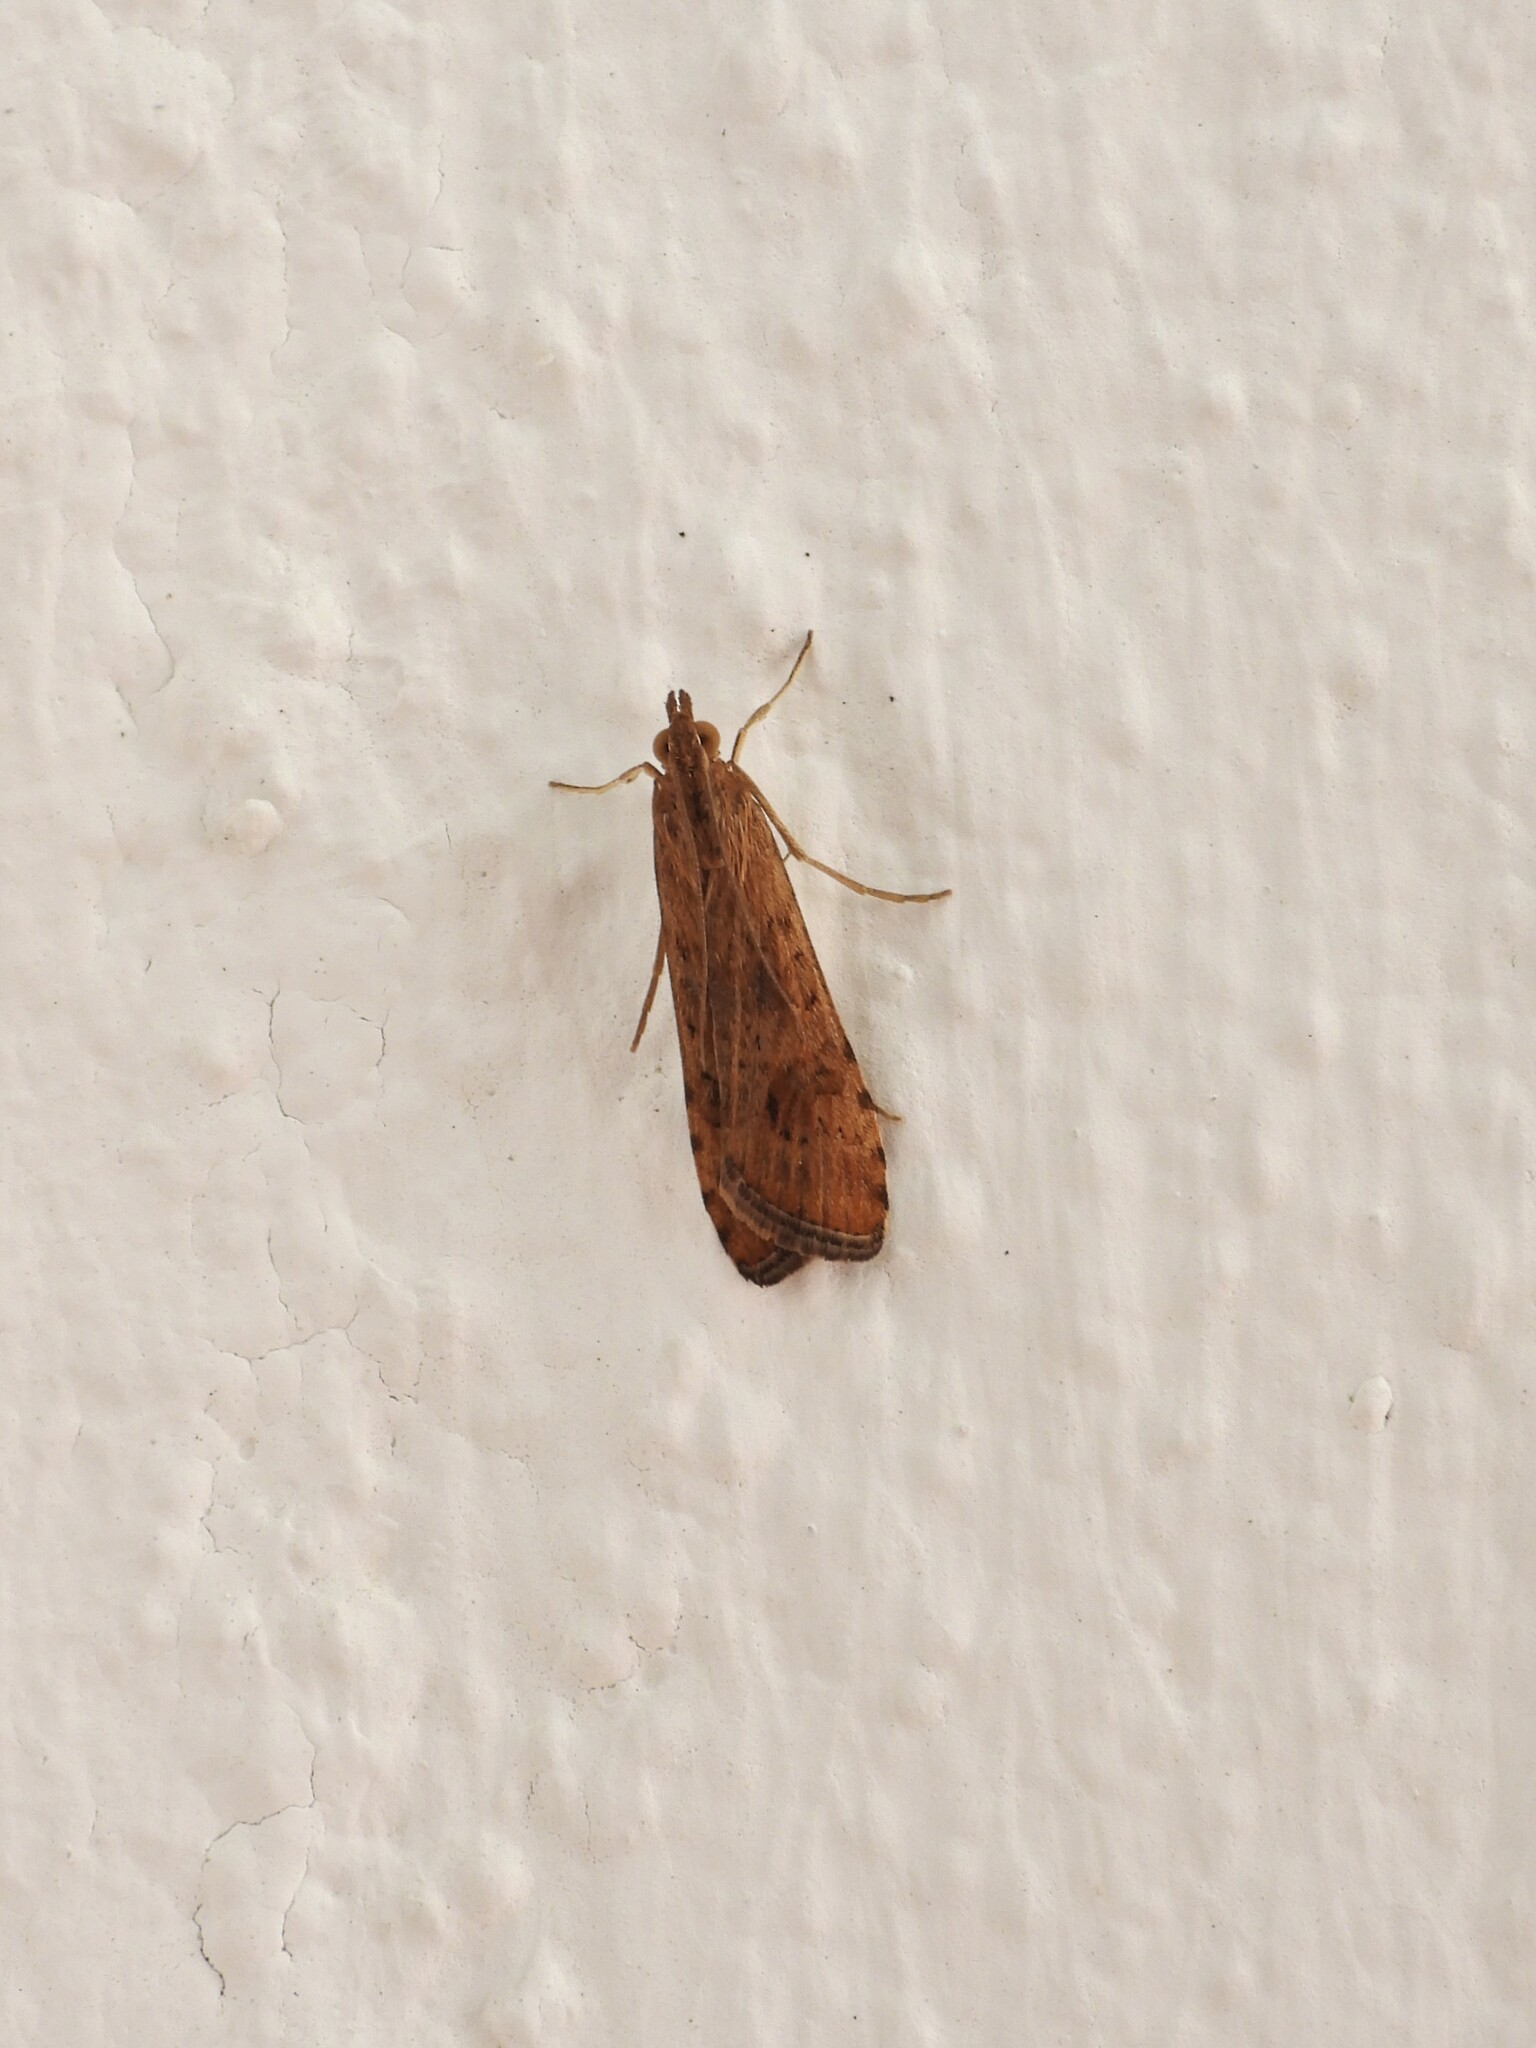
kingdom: Animalia
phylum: Arthropoda
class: Insecta
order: Lepidoptera
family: Crambidae
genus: Nomophila
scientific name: Nomophila noctuella
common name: Rush veneer
